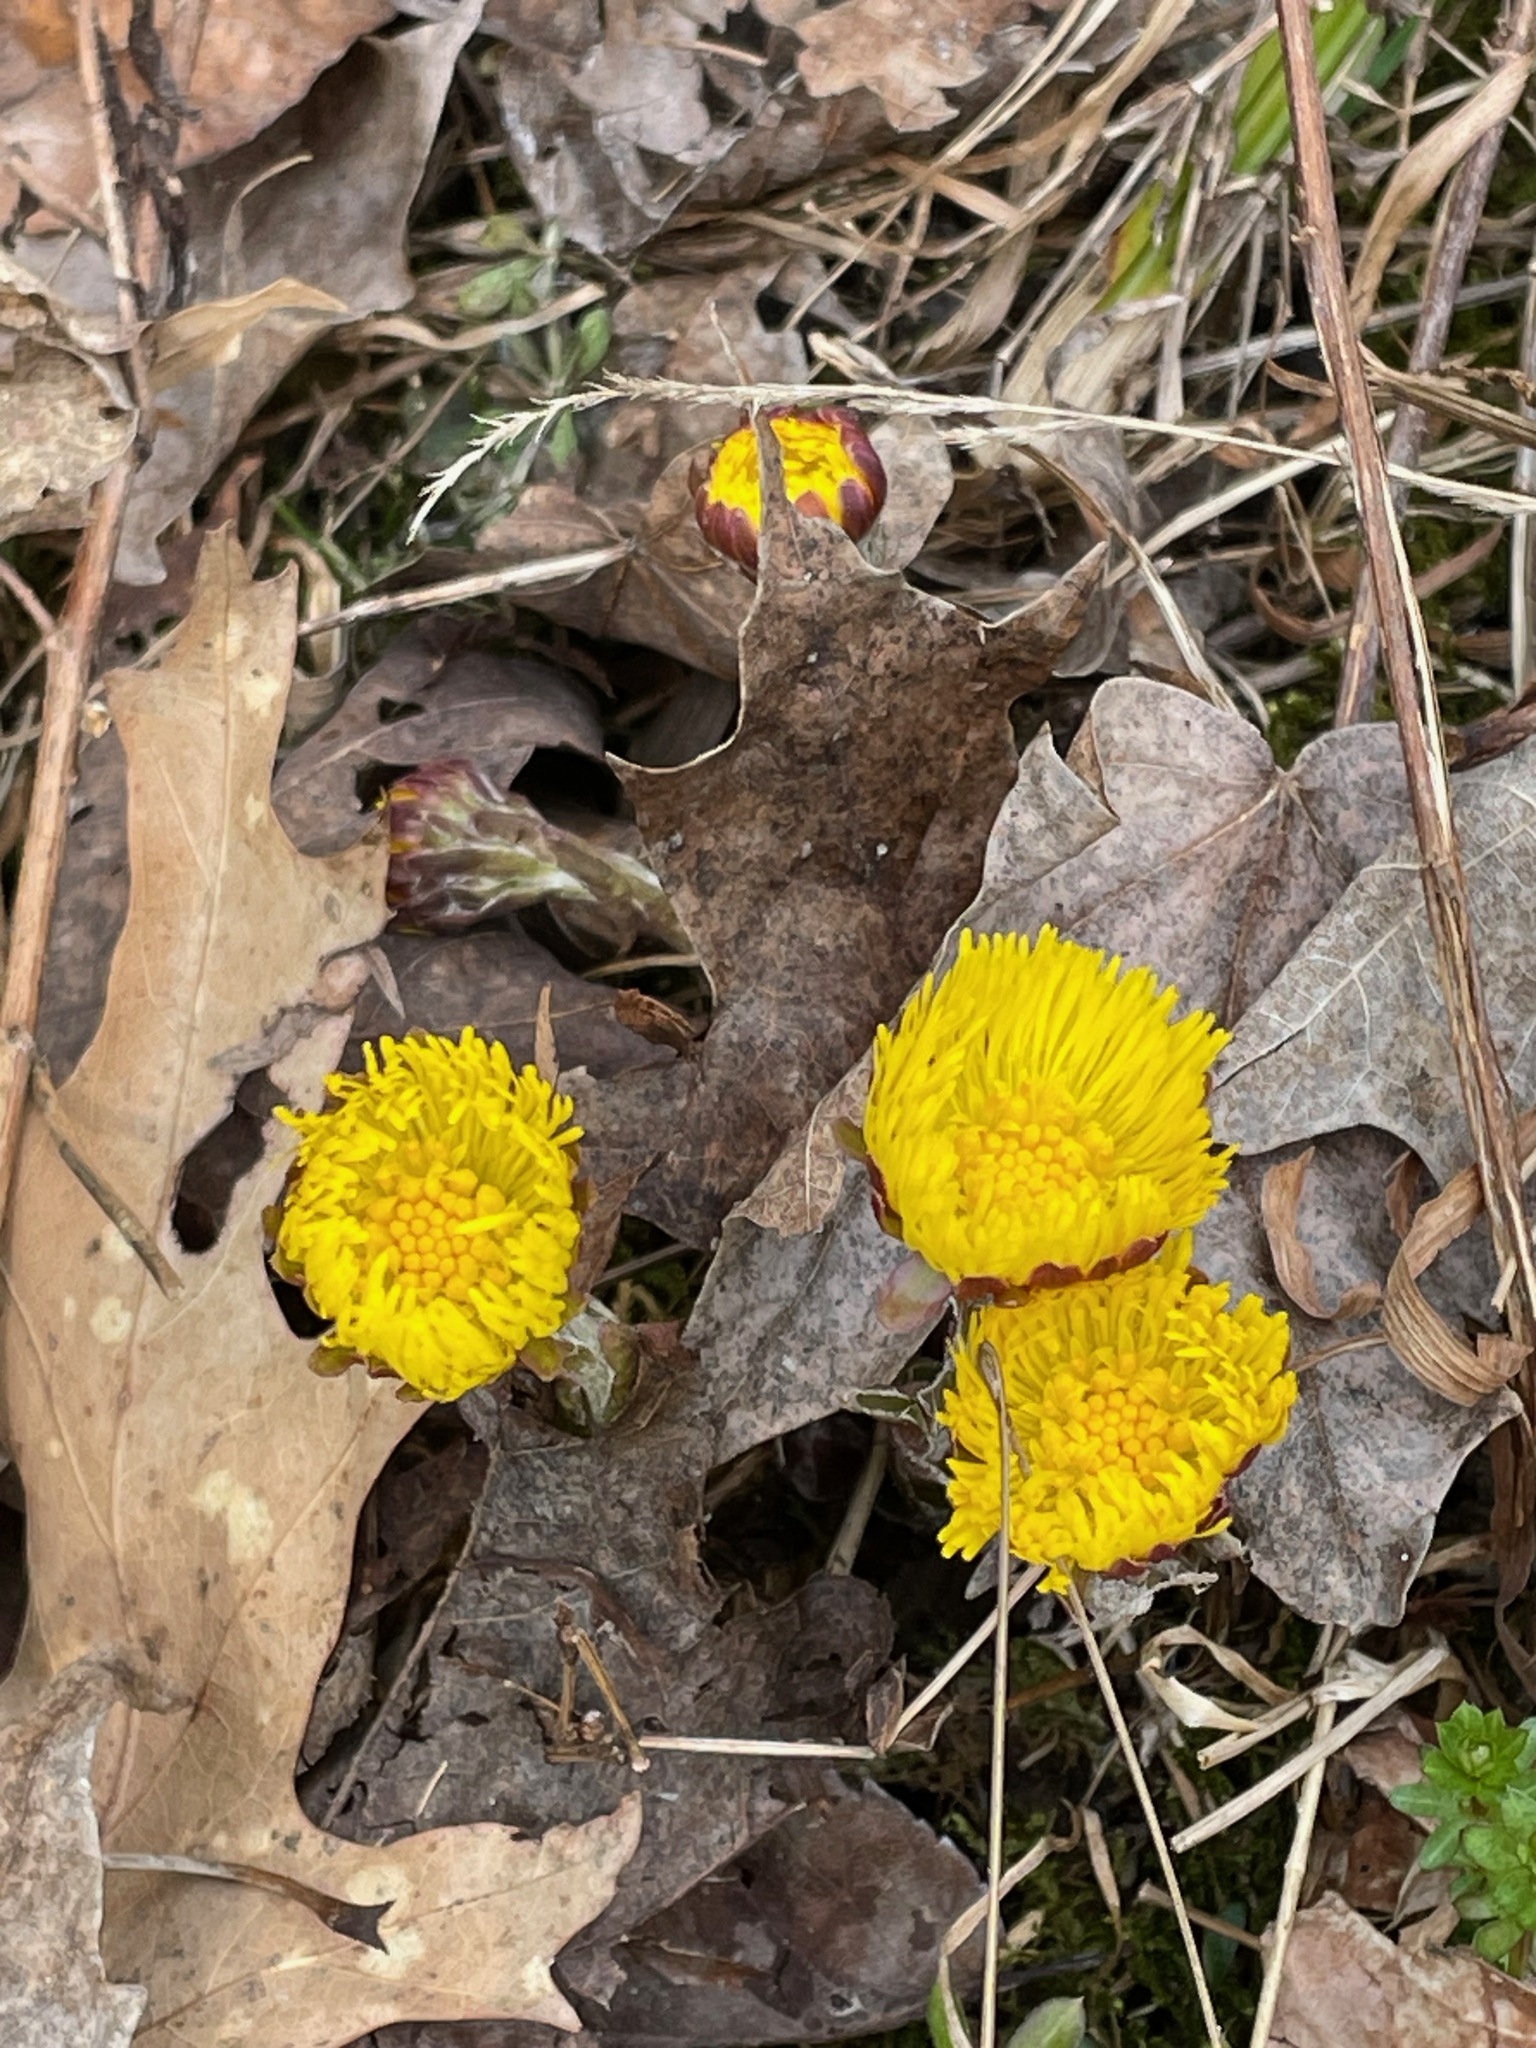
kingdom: Plantae
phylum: Tracheophyta
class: Magnoliopsida
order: Asterales
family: Asteraceae
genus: Tussilago
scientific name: Tussilago farfara
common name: Coltsfoot
